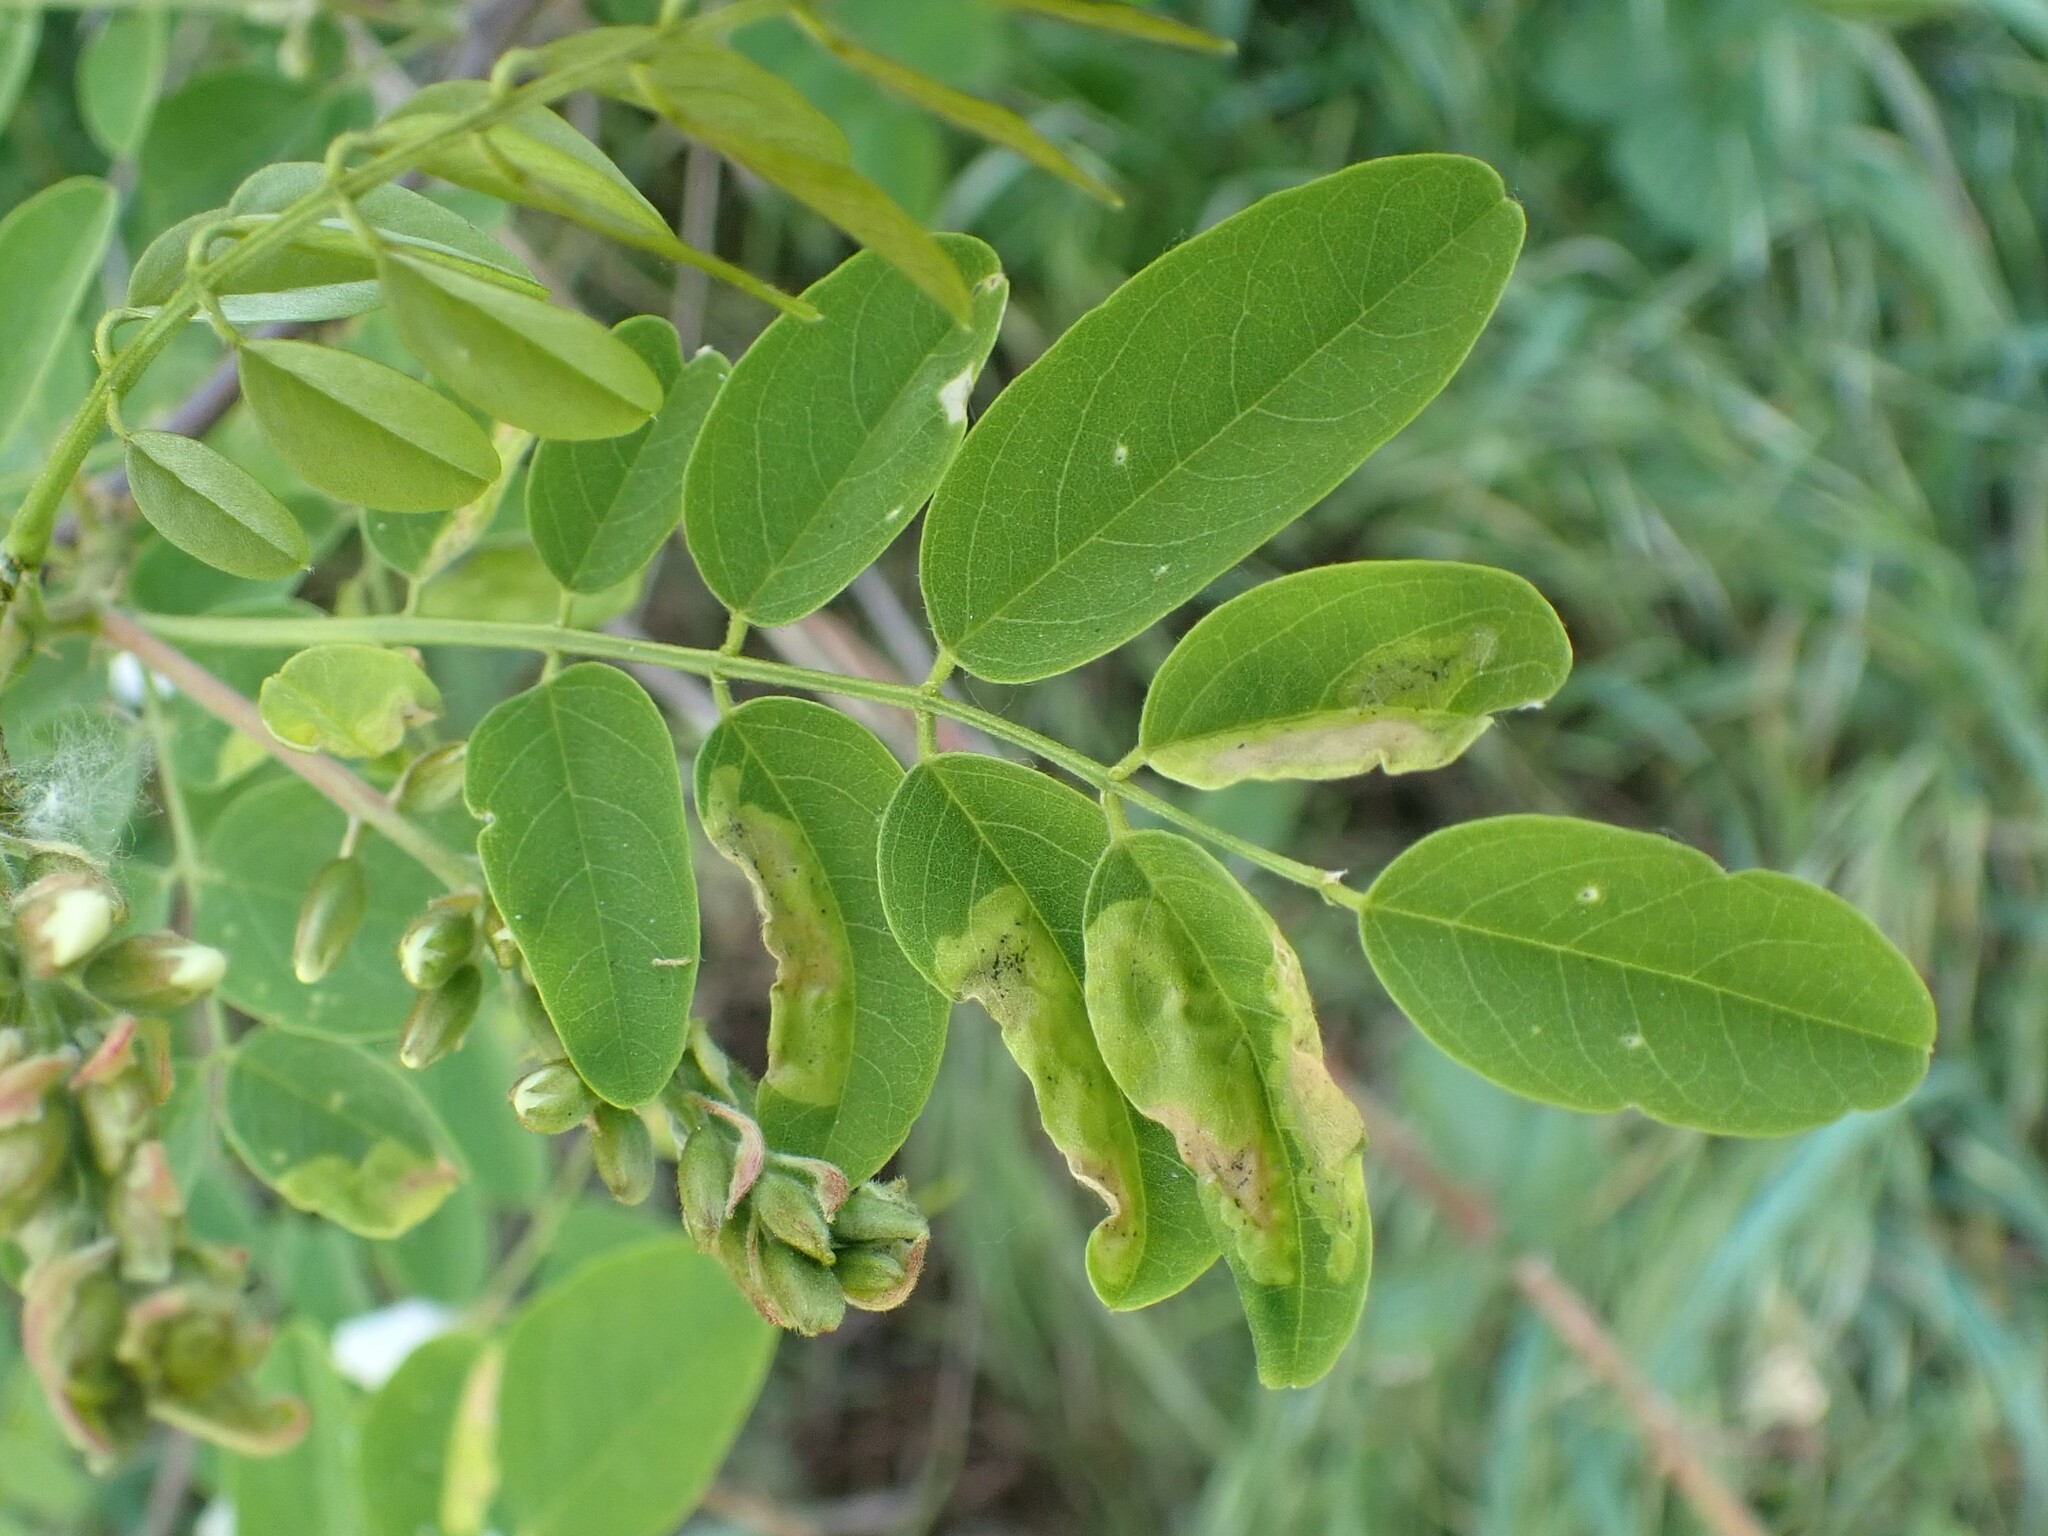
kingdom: Animalia
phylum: Arthropoda
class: Insecta
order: Diptera
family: Agromyzidae
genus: Agromyza
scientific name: Agromyza soka
